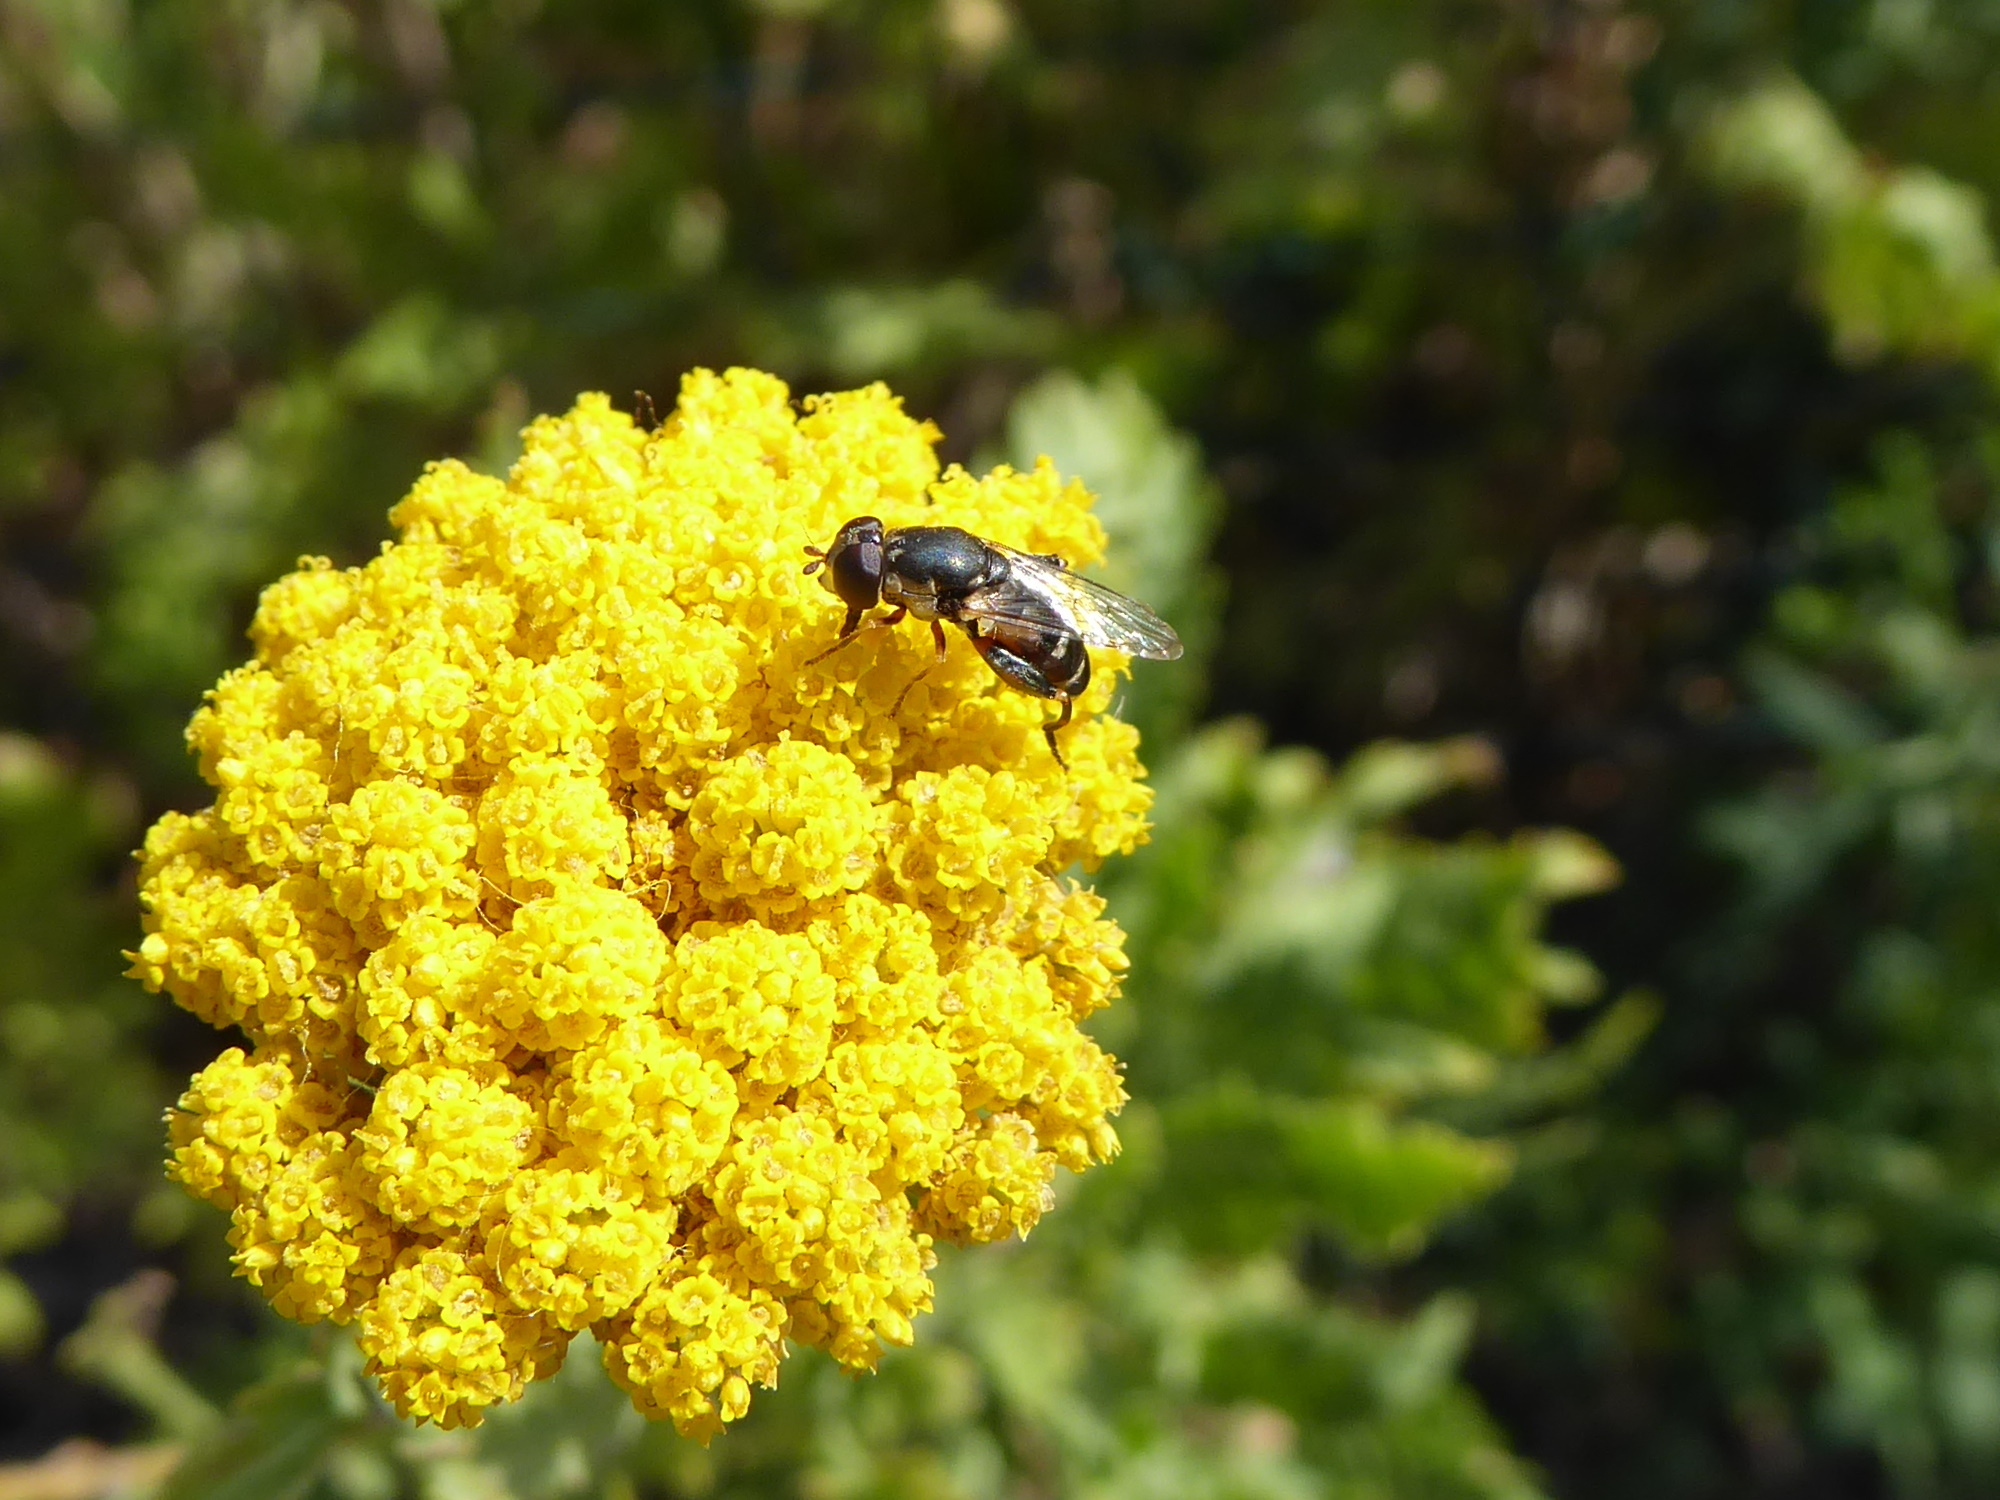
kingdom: Animalia
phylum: Arthropoda
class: Insecta
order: Diptera
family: Syrphidae
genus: Syritta
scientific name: Syritta pipiens
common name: Hover fly
